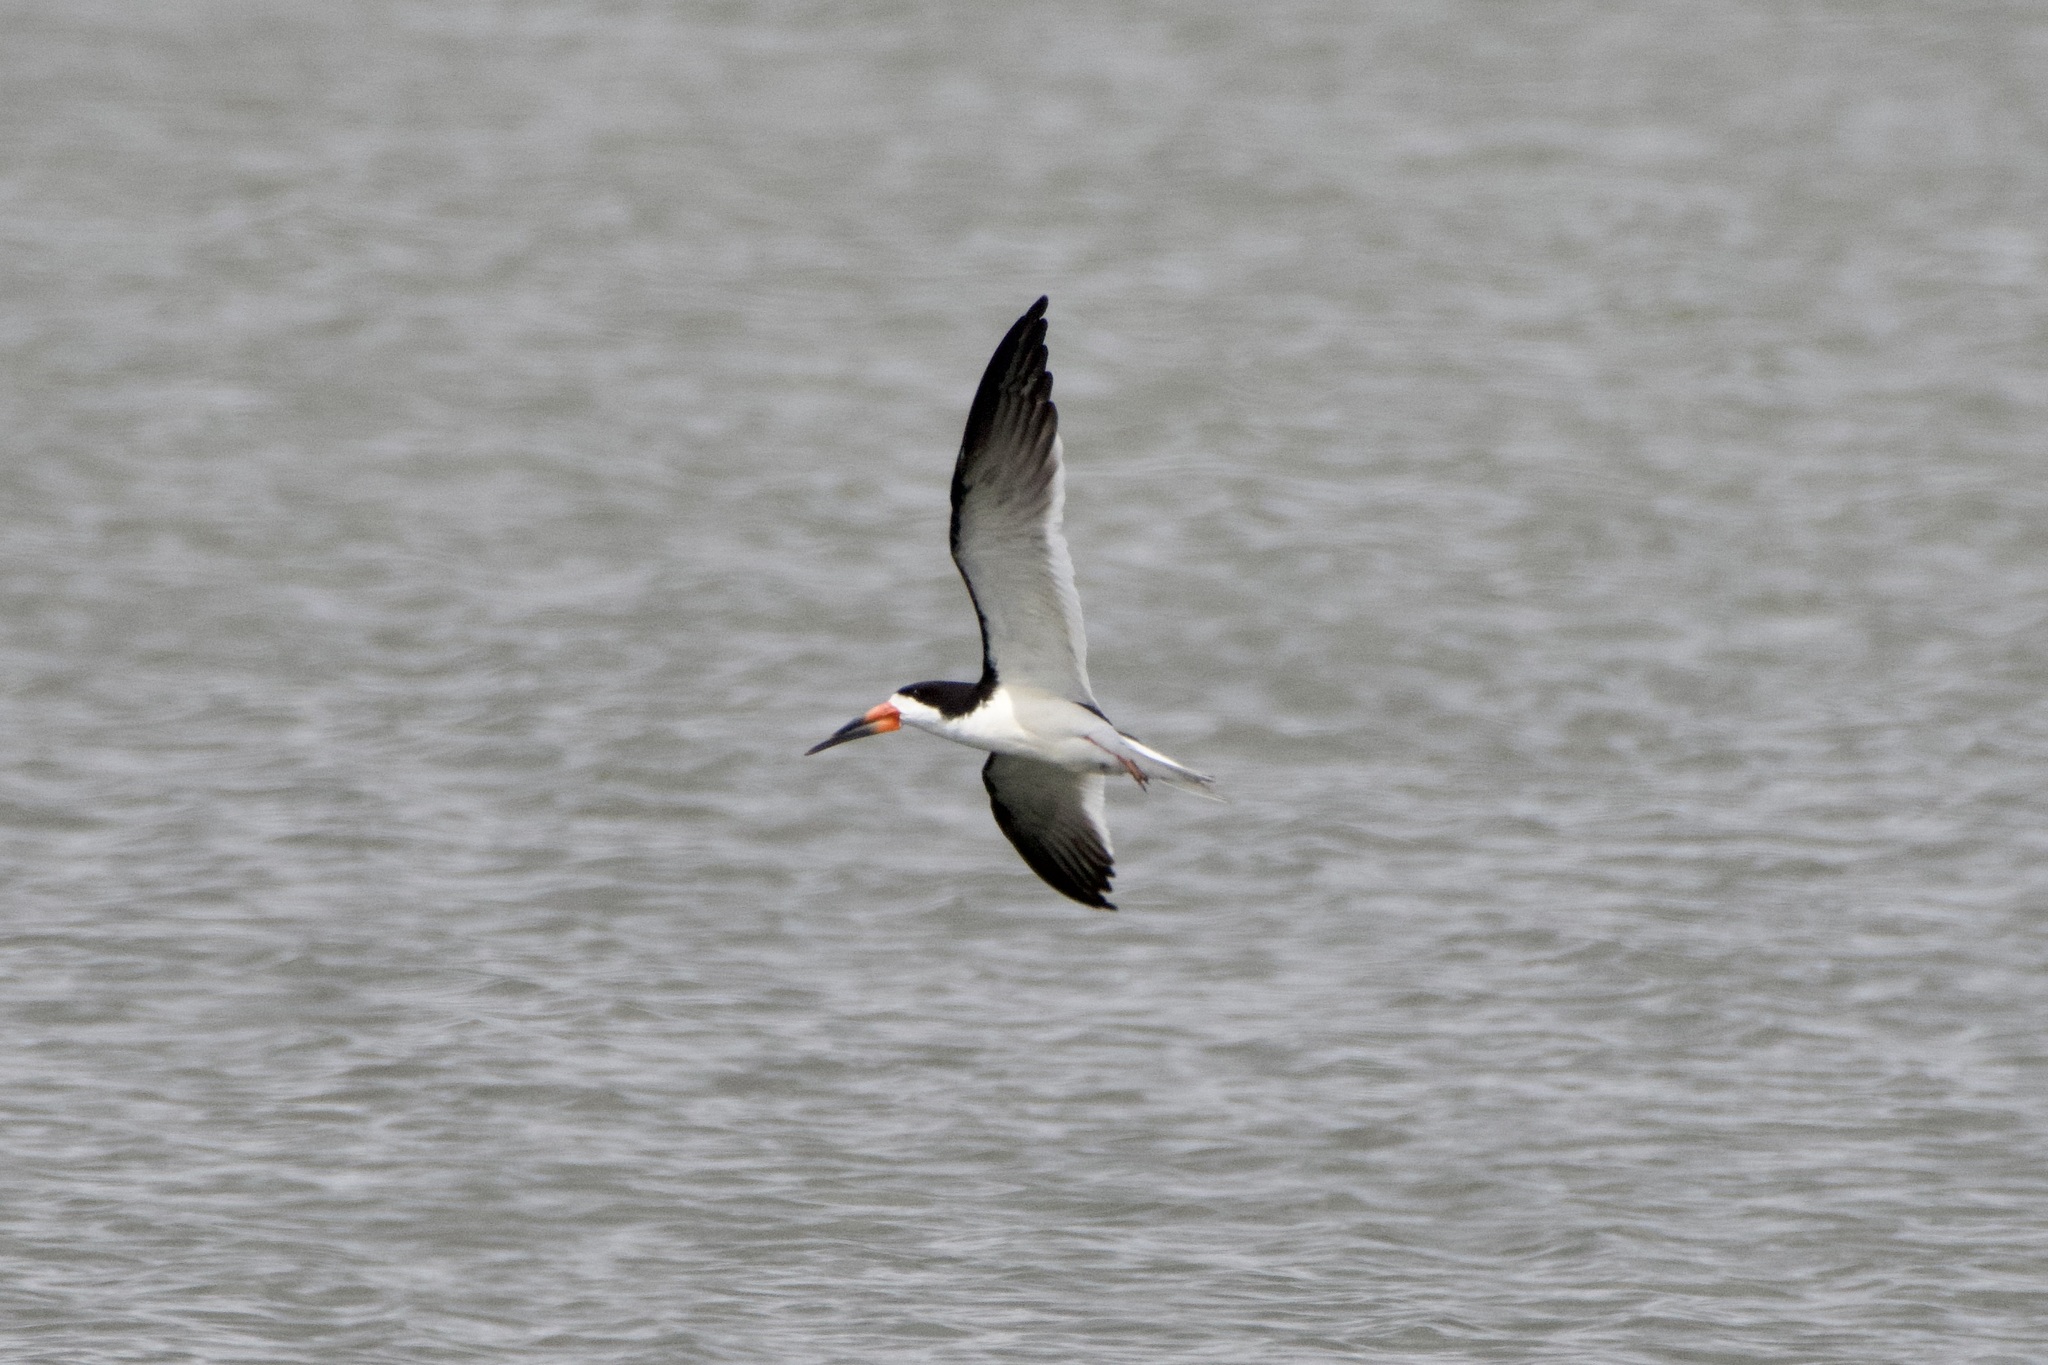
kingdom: Animalia
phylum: Chordata
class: Aves
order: Charadriiformes
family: Laridae
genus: Rynchops
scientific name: Rynchops niger
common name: Black skimmer
